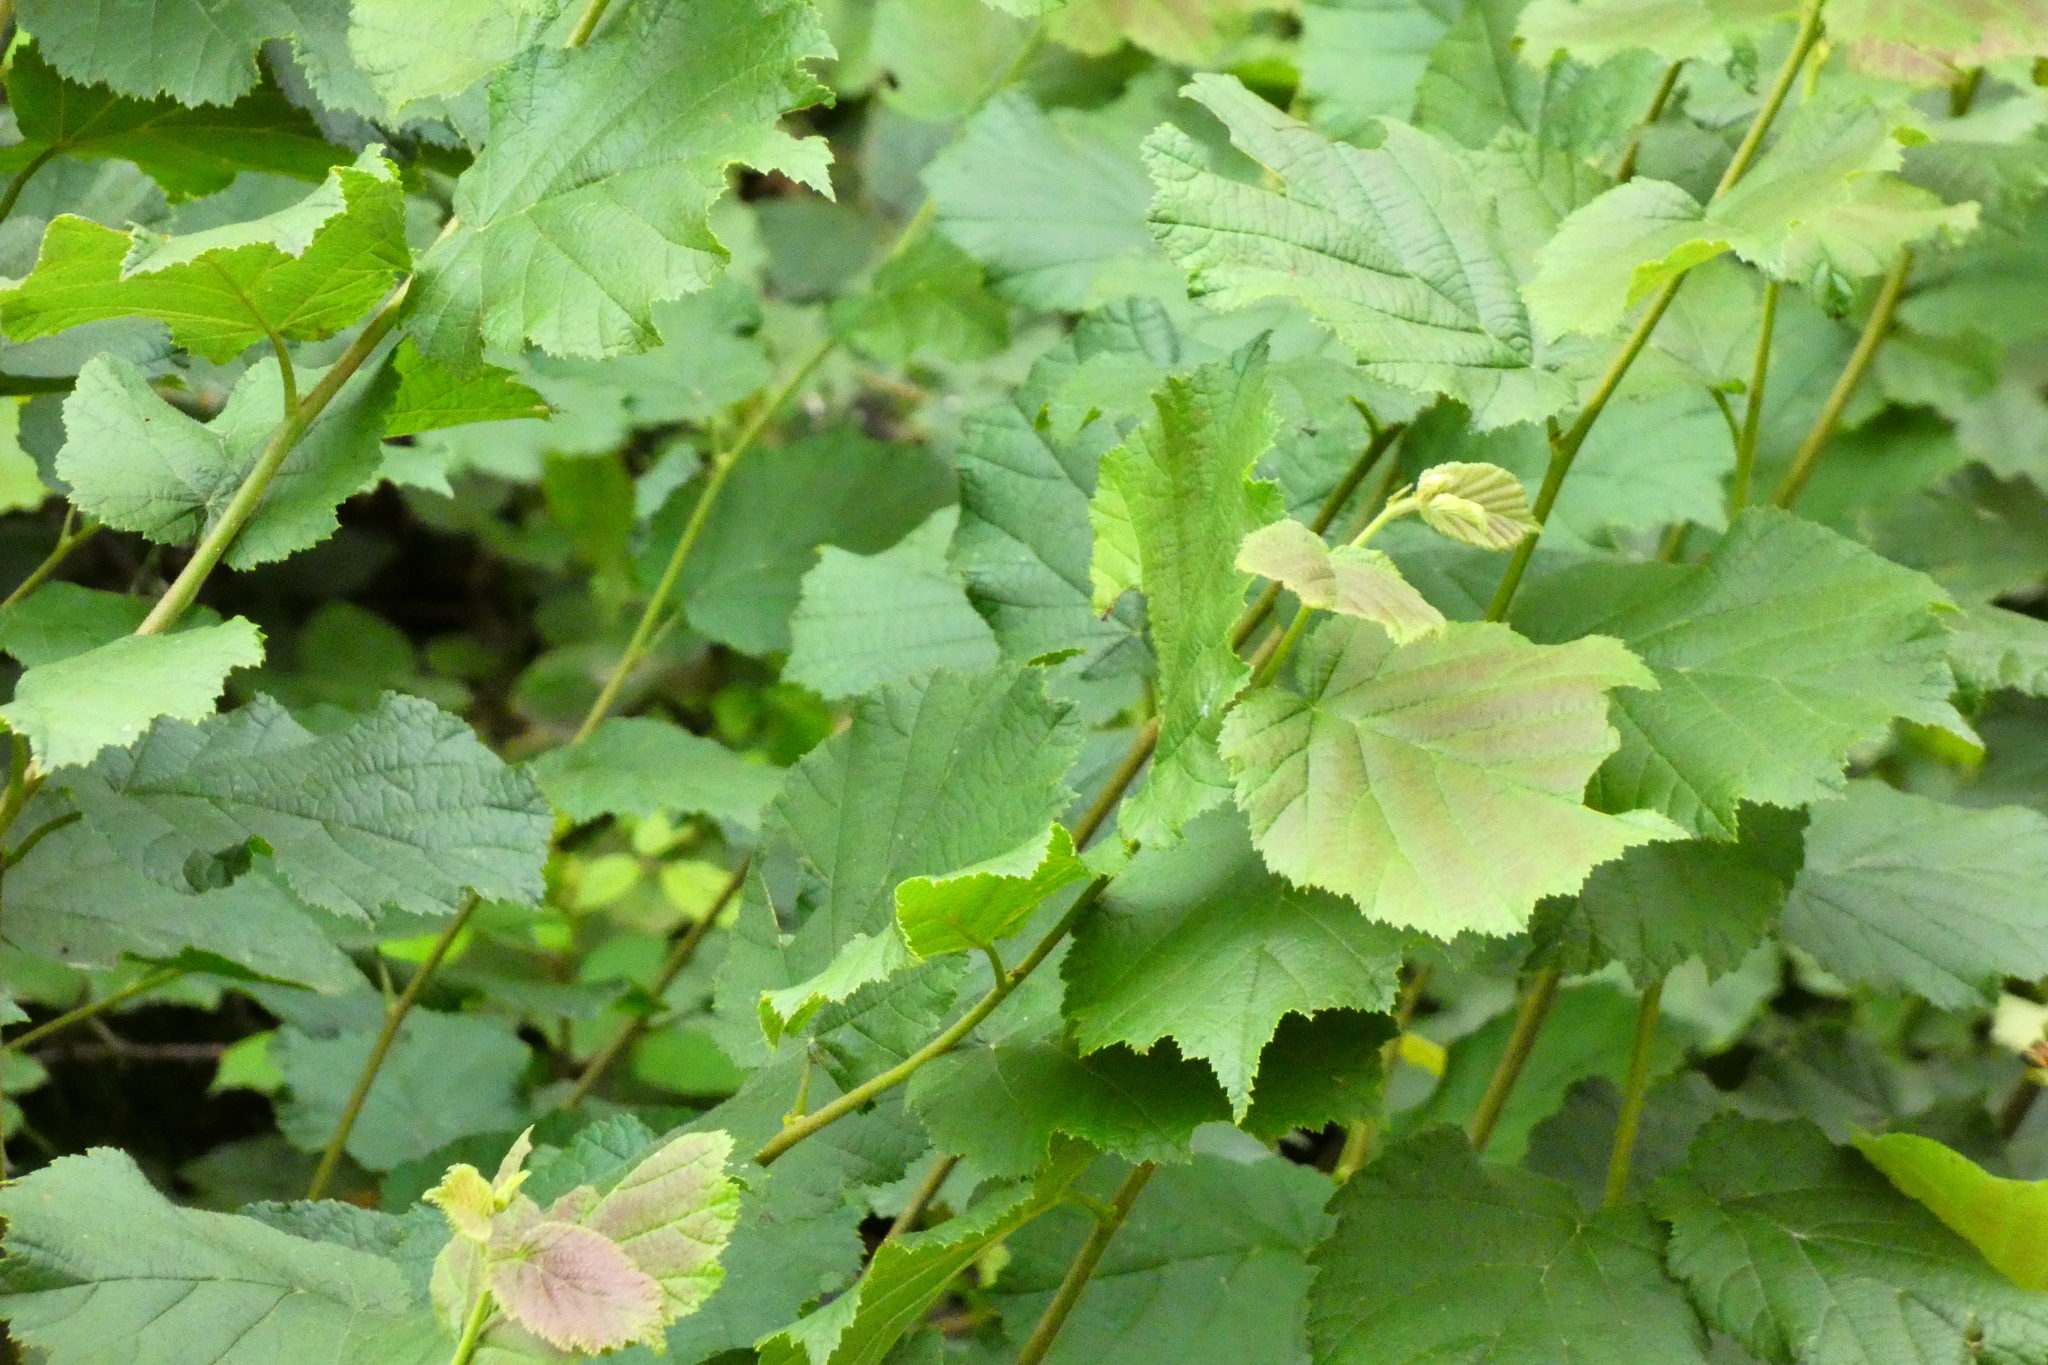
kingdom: Plantae
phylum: Tracheophyta
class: Magnoliopsida
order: Fagales
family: Betulaceae
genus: Corylus
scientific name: Corylus avellana
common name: European hazel
